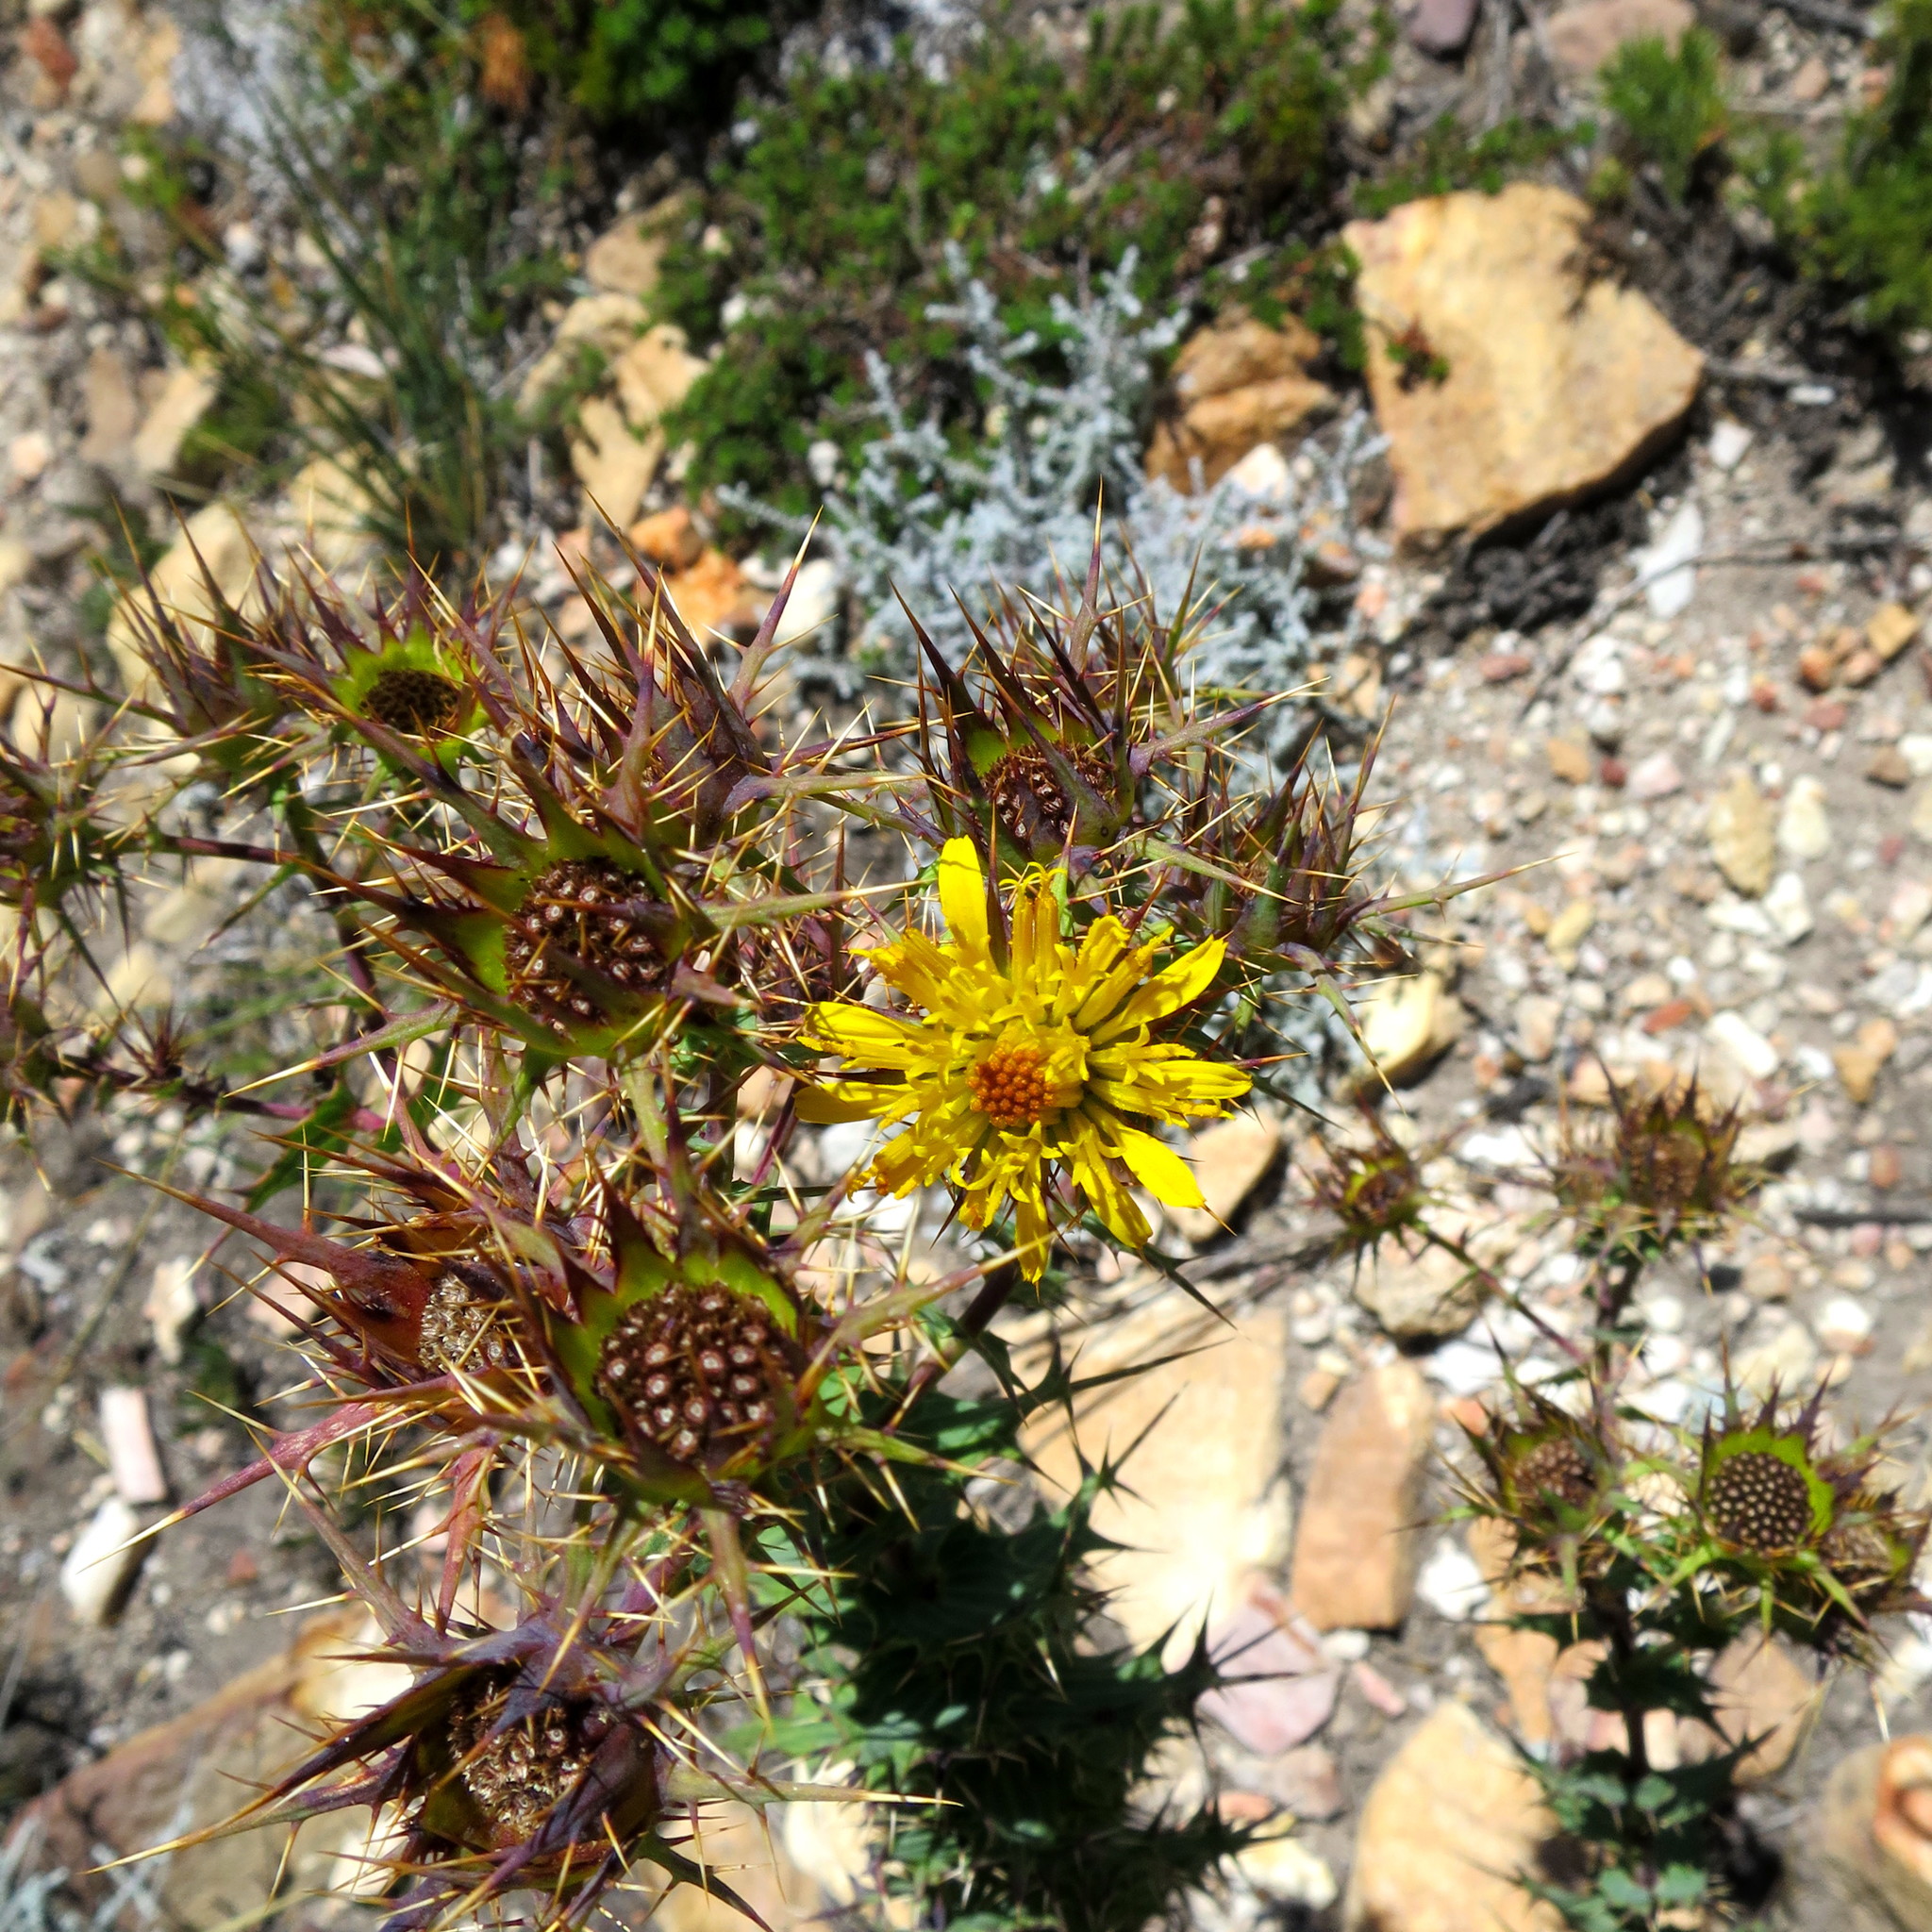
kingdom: Plantae
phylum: Tracheophyta
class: Magnoliopsida
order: Asterales
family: Asteraceae
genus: Berkheya
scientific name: Berkheya cruciata
